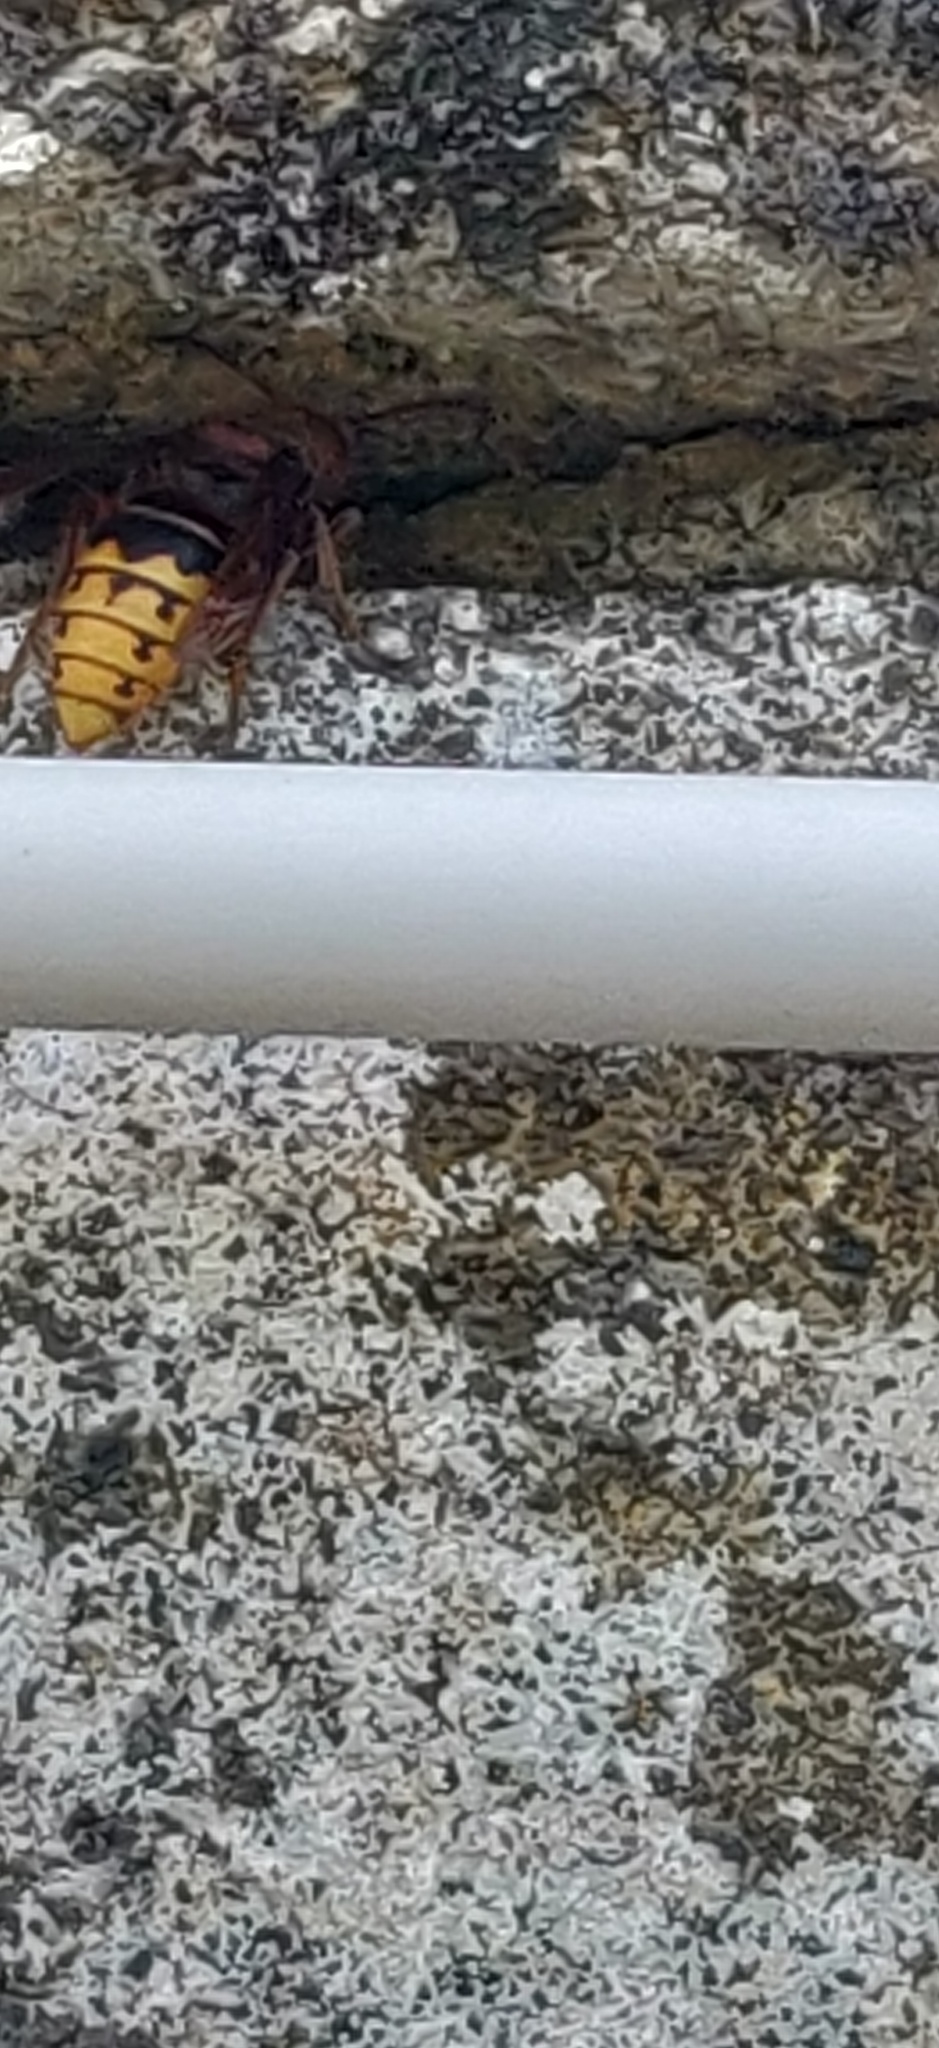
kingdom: Animalia
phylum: Arthropoda
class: Insecta
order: Hymenoptera
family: Vespidae
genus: Vespa
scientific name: Vespa crabro
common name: Hornet
